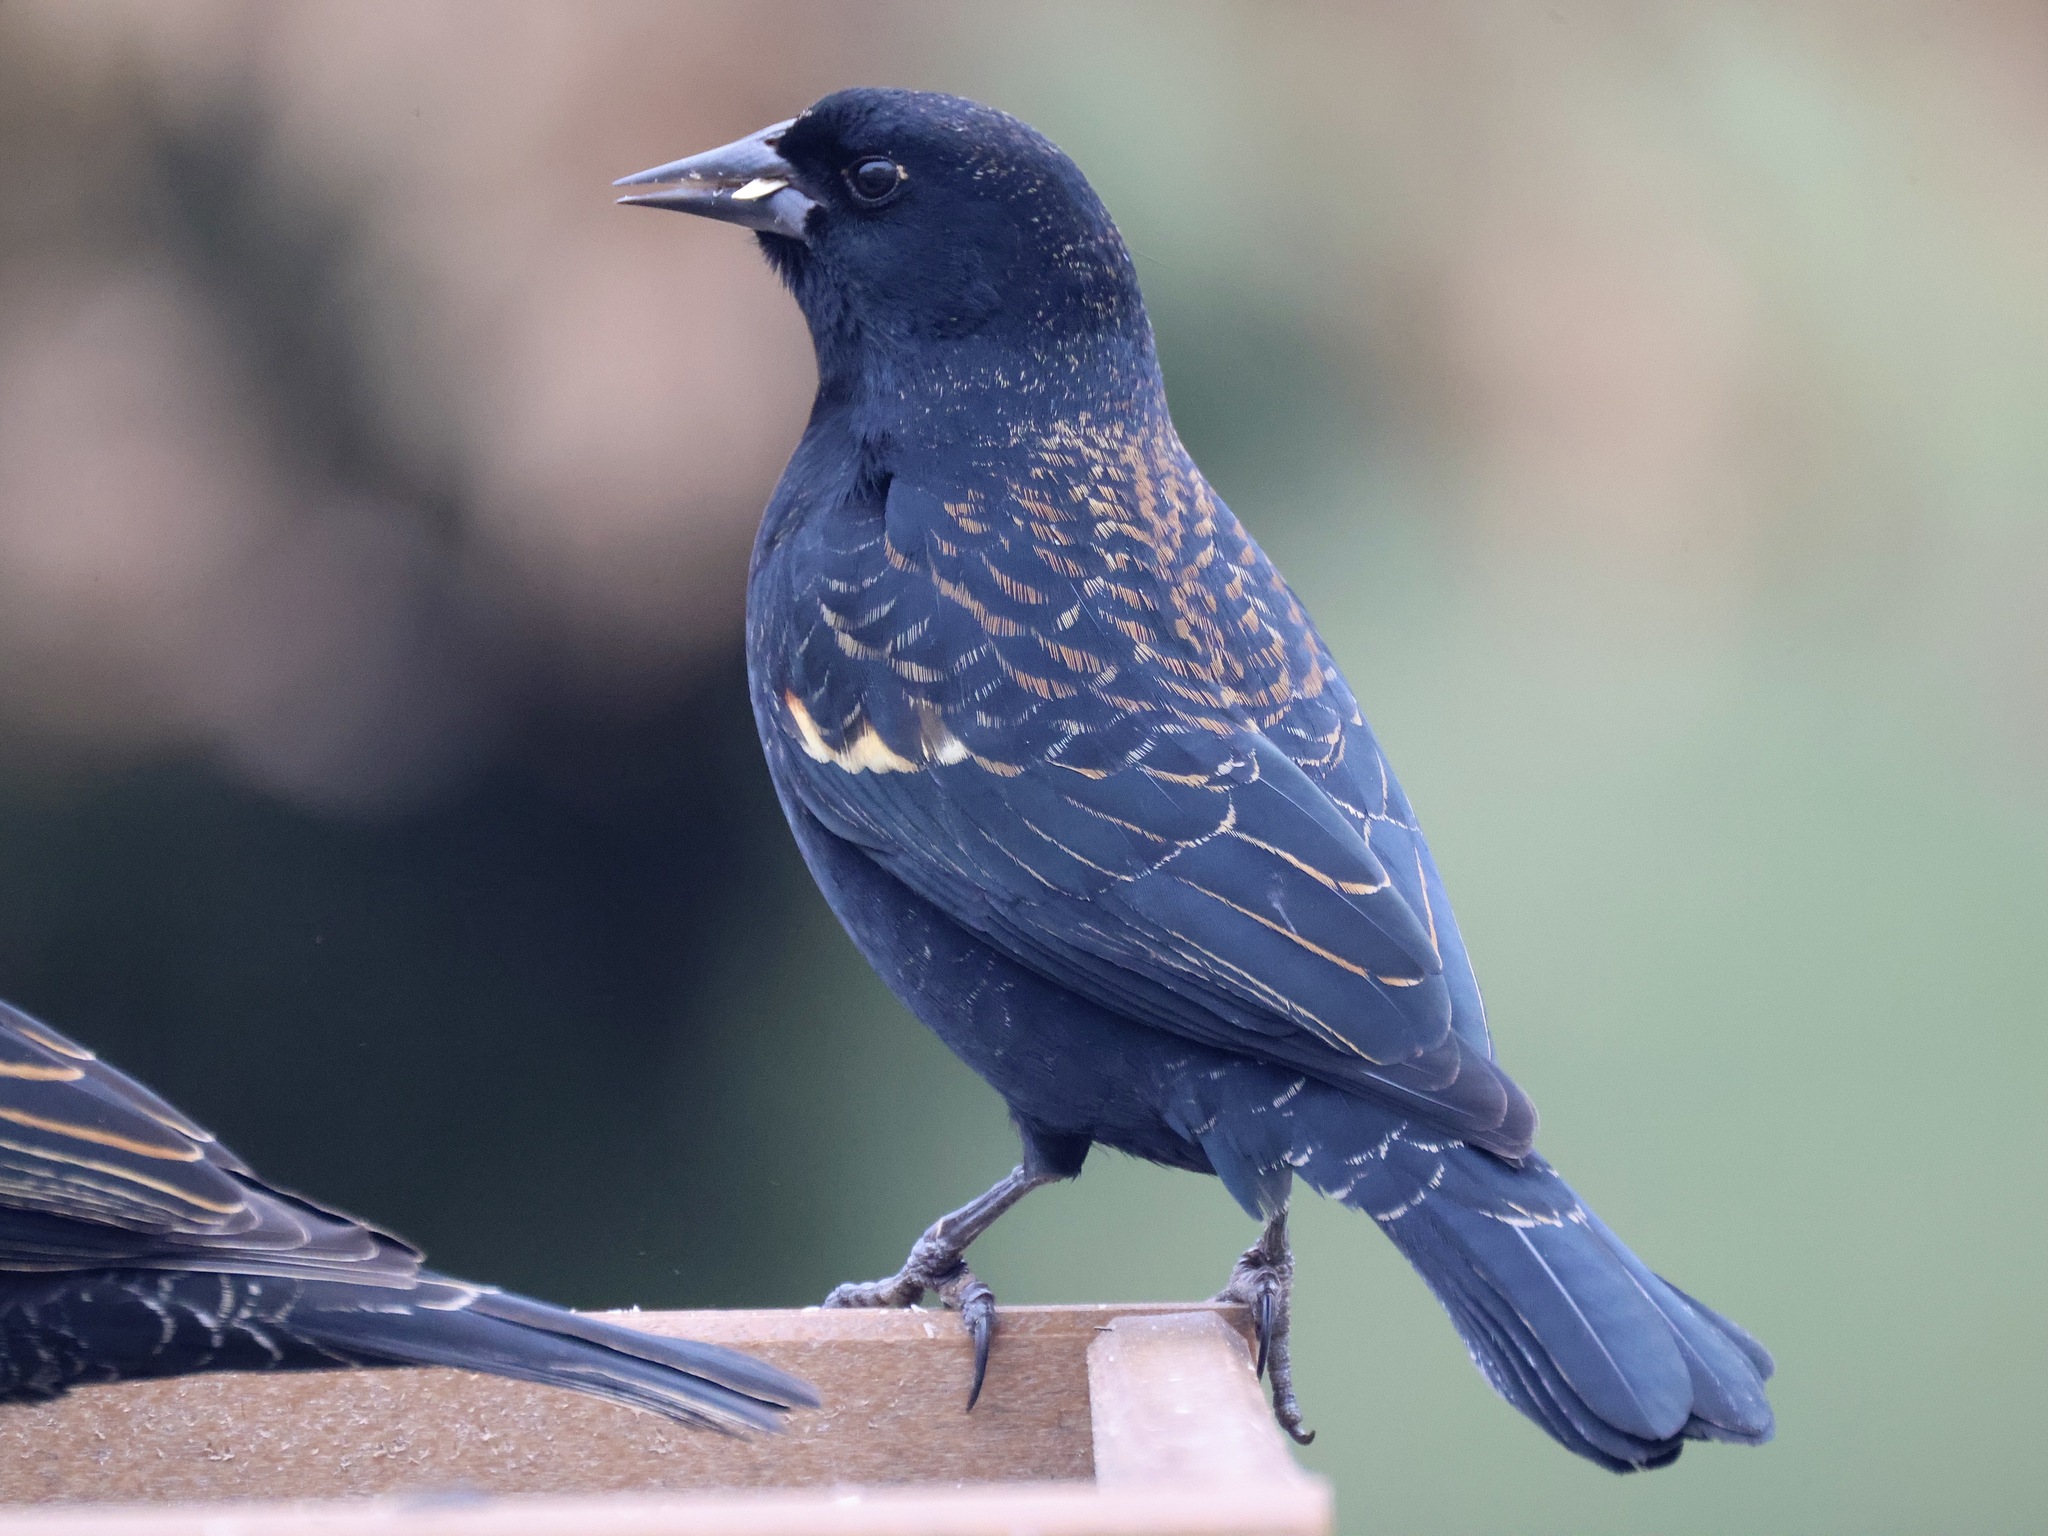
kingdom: Animalia
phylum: Chordata
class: Aves
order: Passeriformes
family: Icteridae
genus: Agelaius
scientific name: Agelaius phoeniceus
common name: Red-winged blackbird
